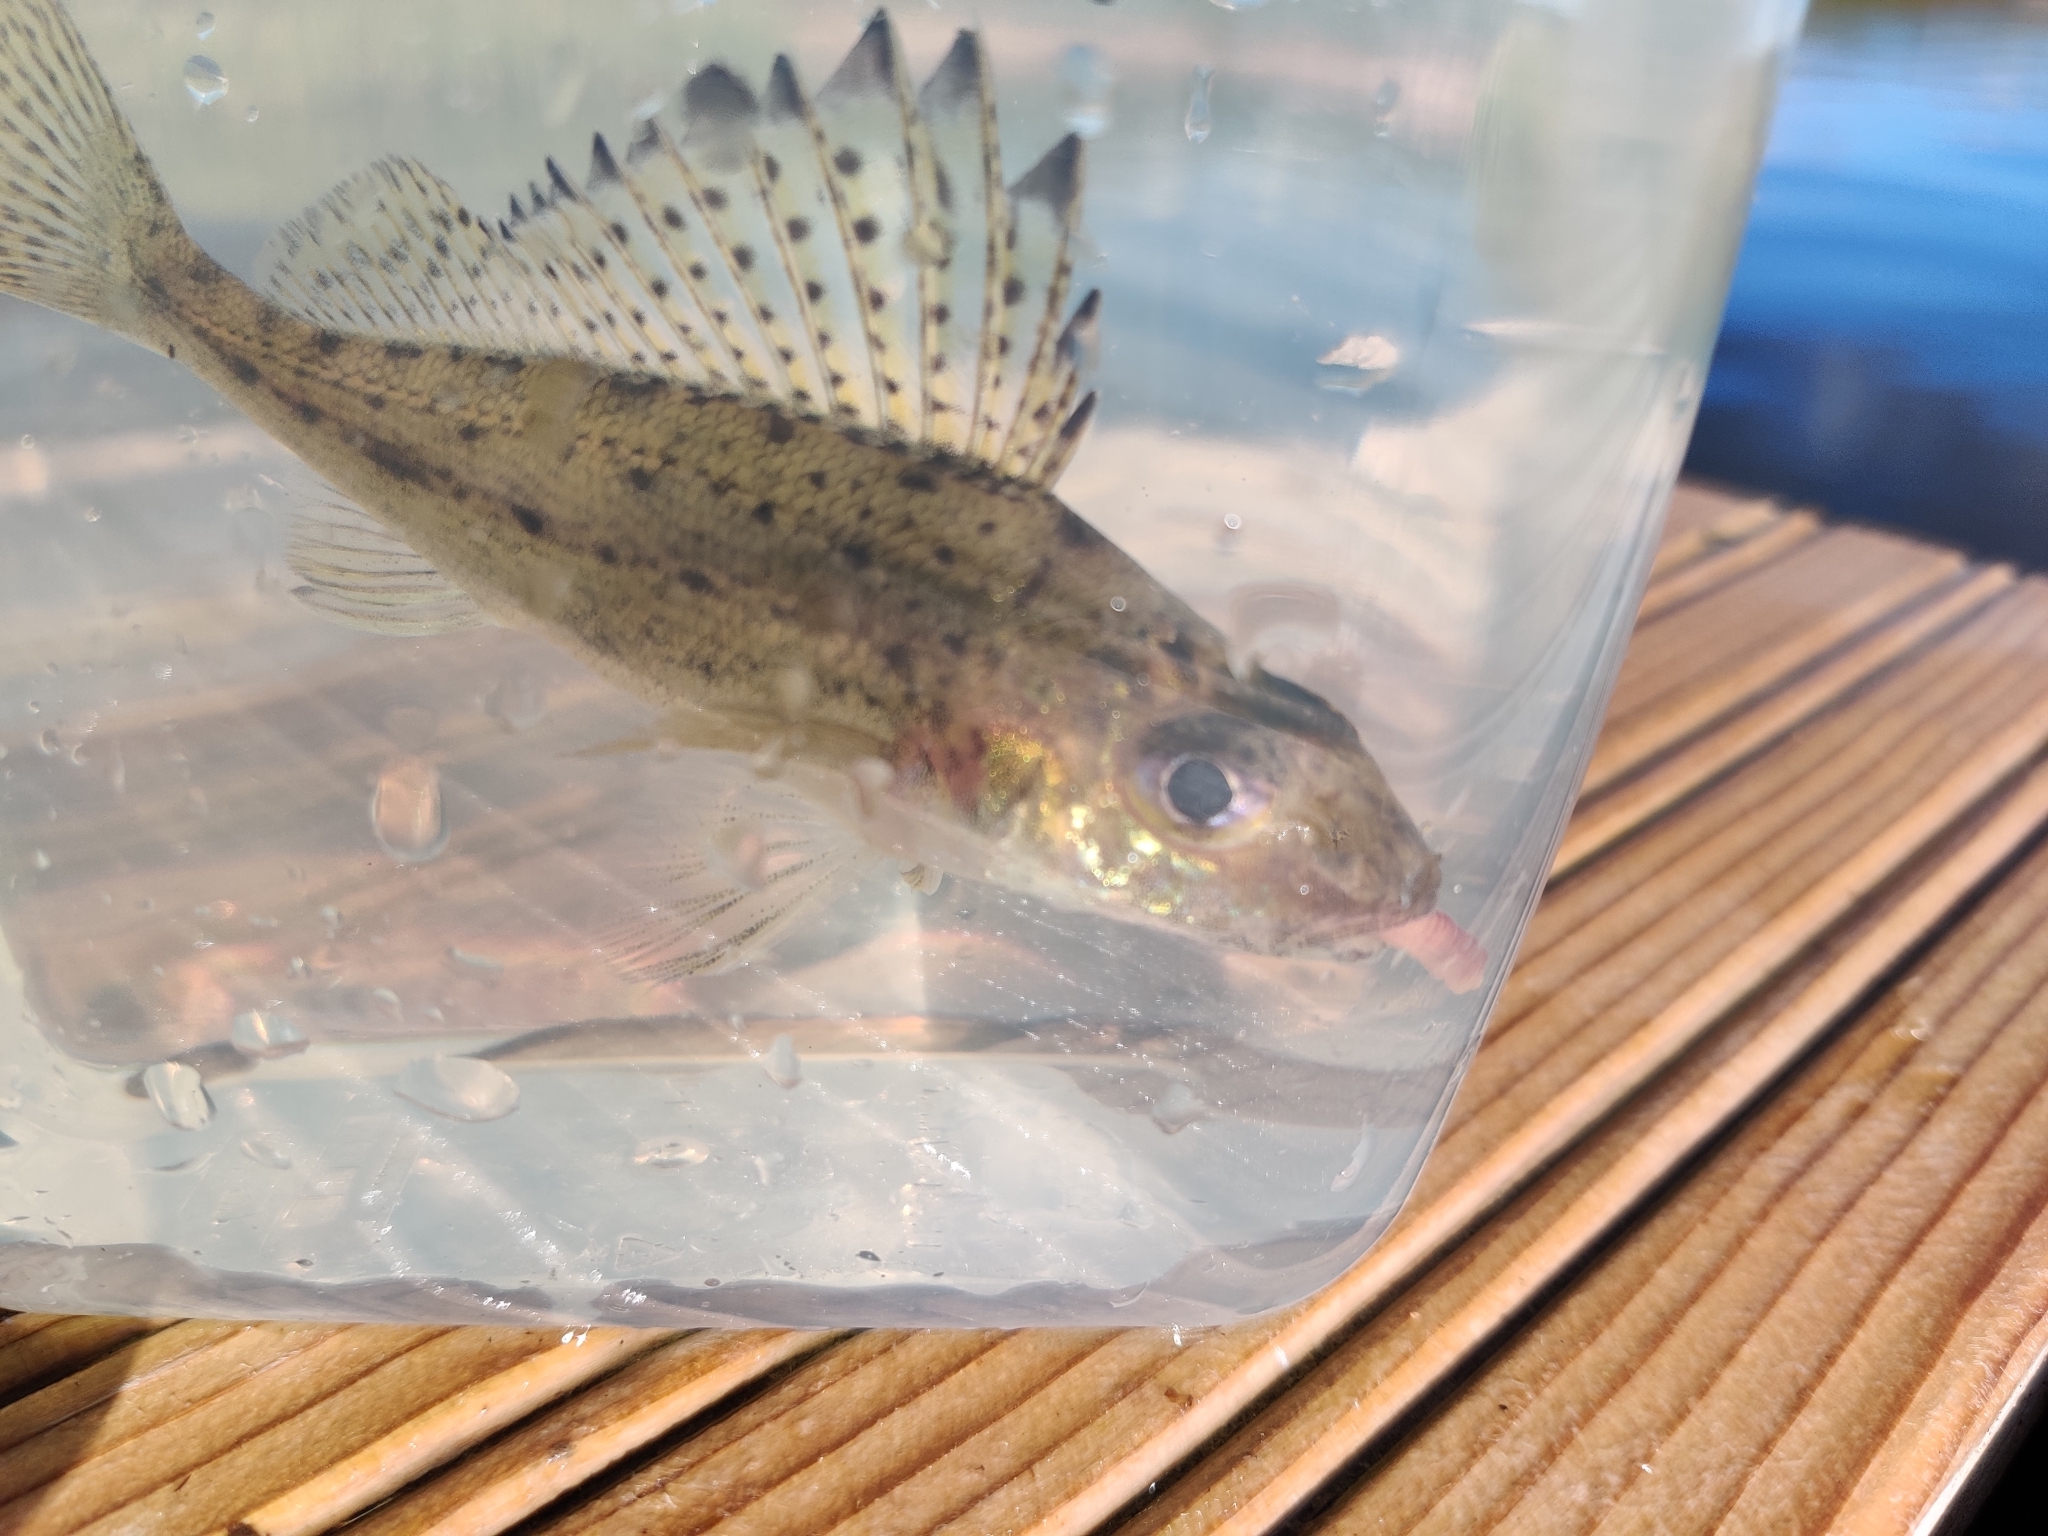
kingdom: Animalia
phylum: Chordata
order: Perciformes
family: Percidae
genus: Gymnocephalus
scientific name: Gymnocephalus cernua
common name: Ruffe
